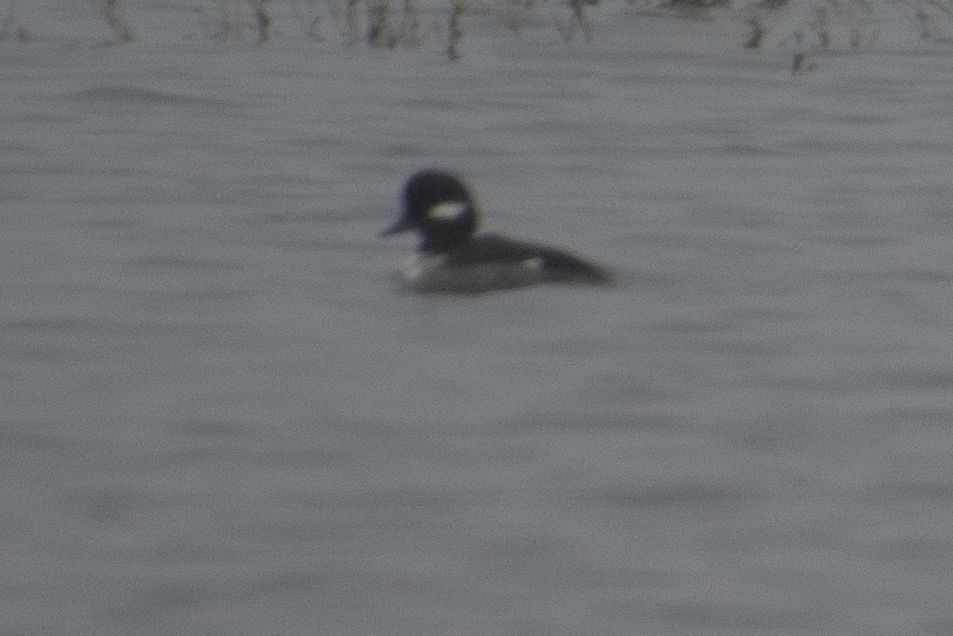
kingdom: Animalia
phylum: Chordata
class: Aves
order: Anseriformes
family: Anatidae
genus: Bucephala
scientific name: Bucephala albeola
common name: Bufflehead
